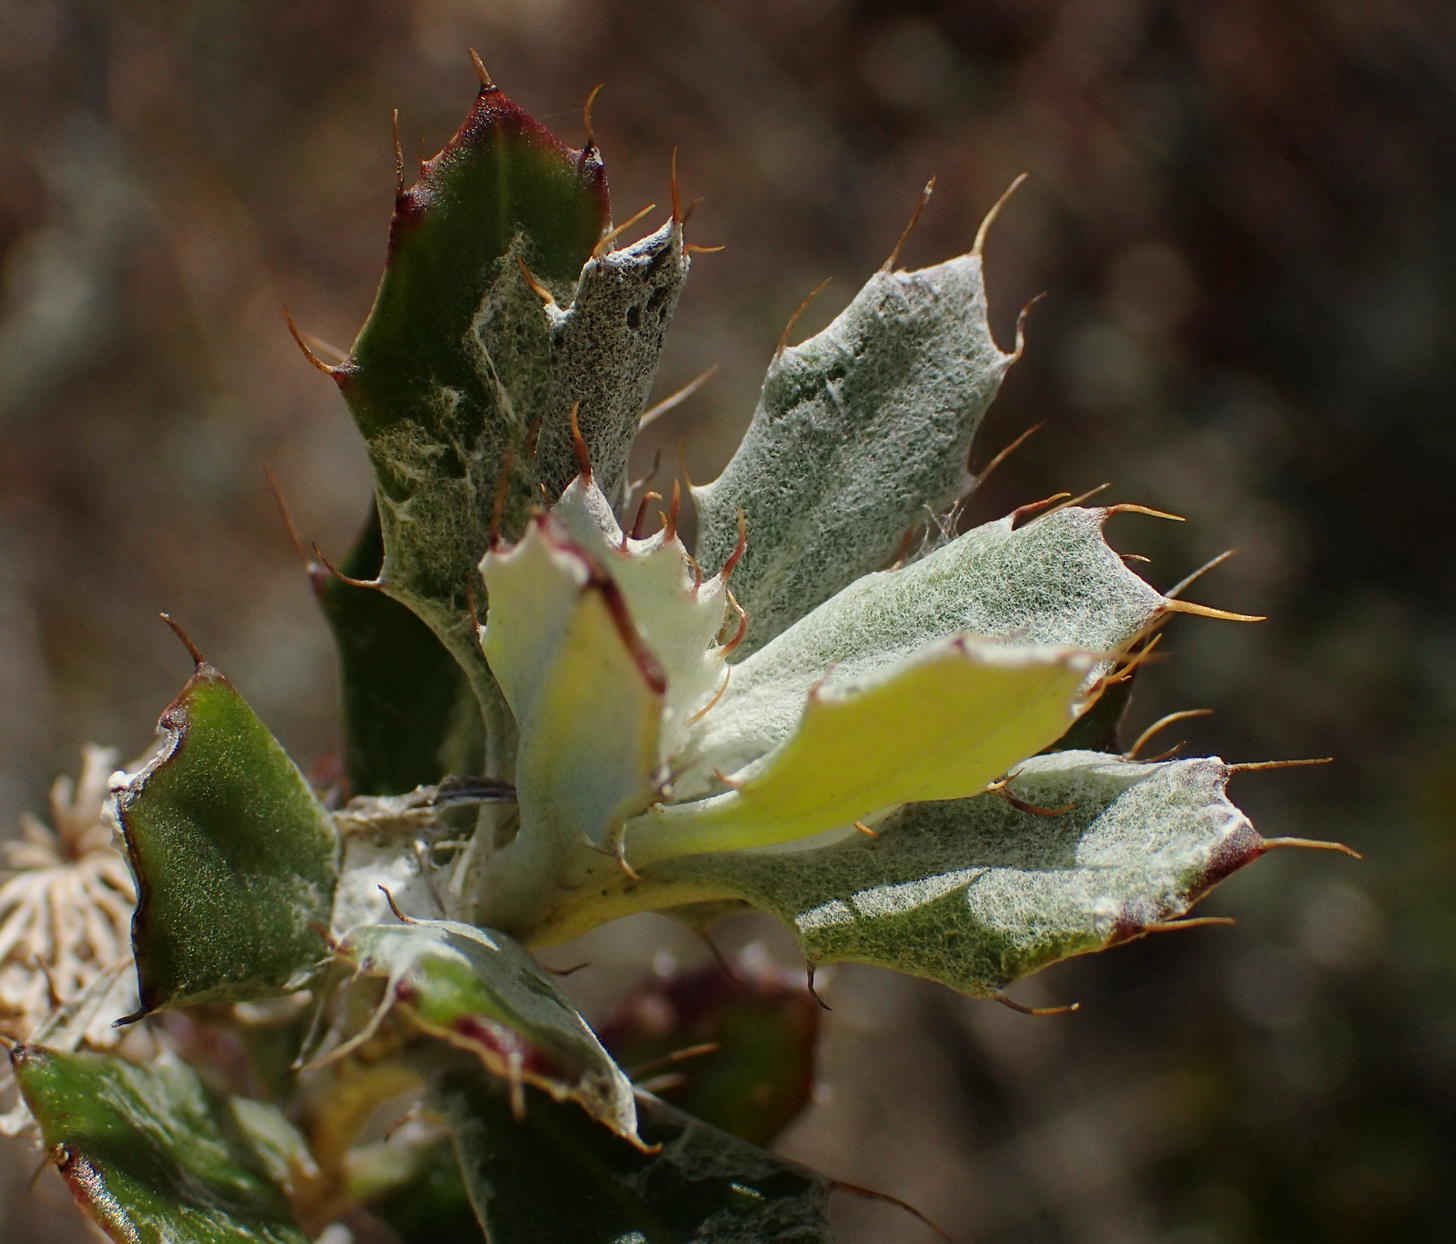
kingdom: Plantae
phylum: Tracheophyta
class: Magnoliopsida
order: Asterales
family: Asteraceae
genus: Berkheya
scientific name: Berkheya coriacea
